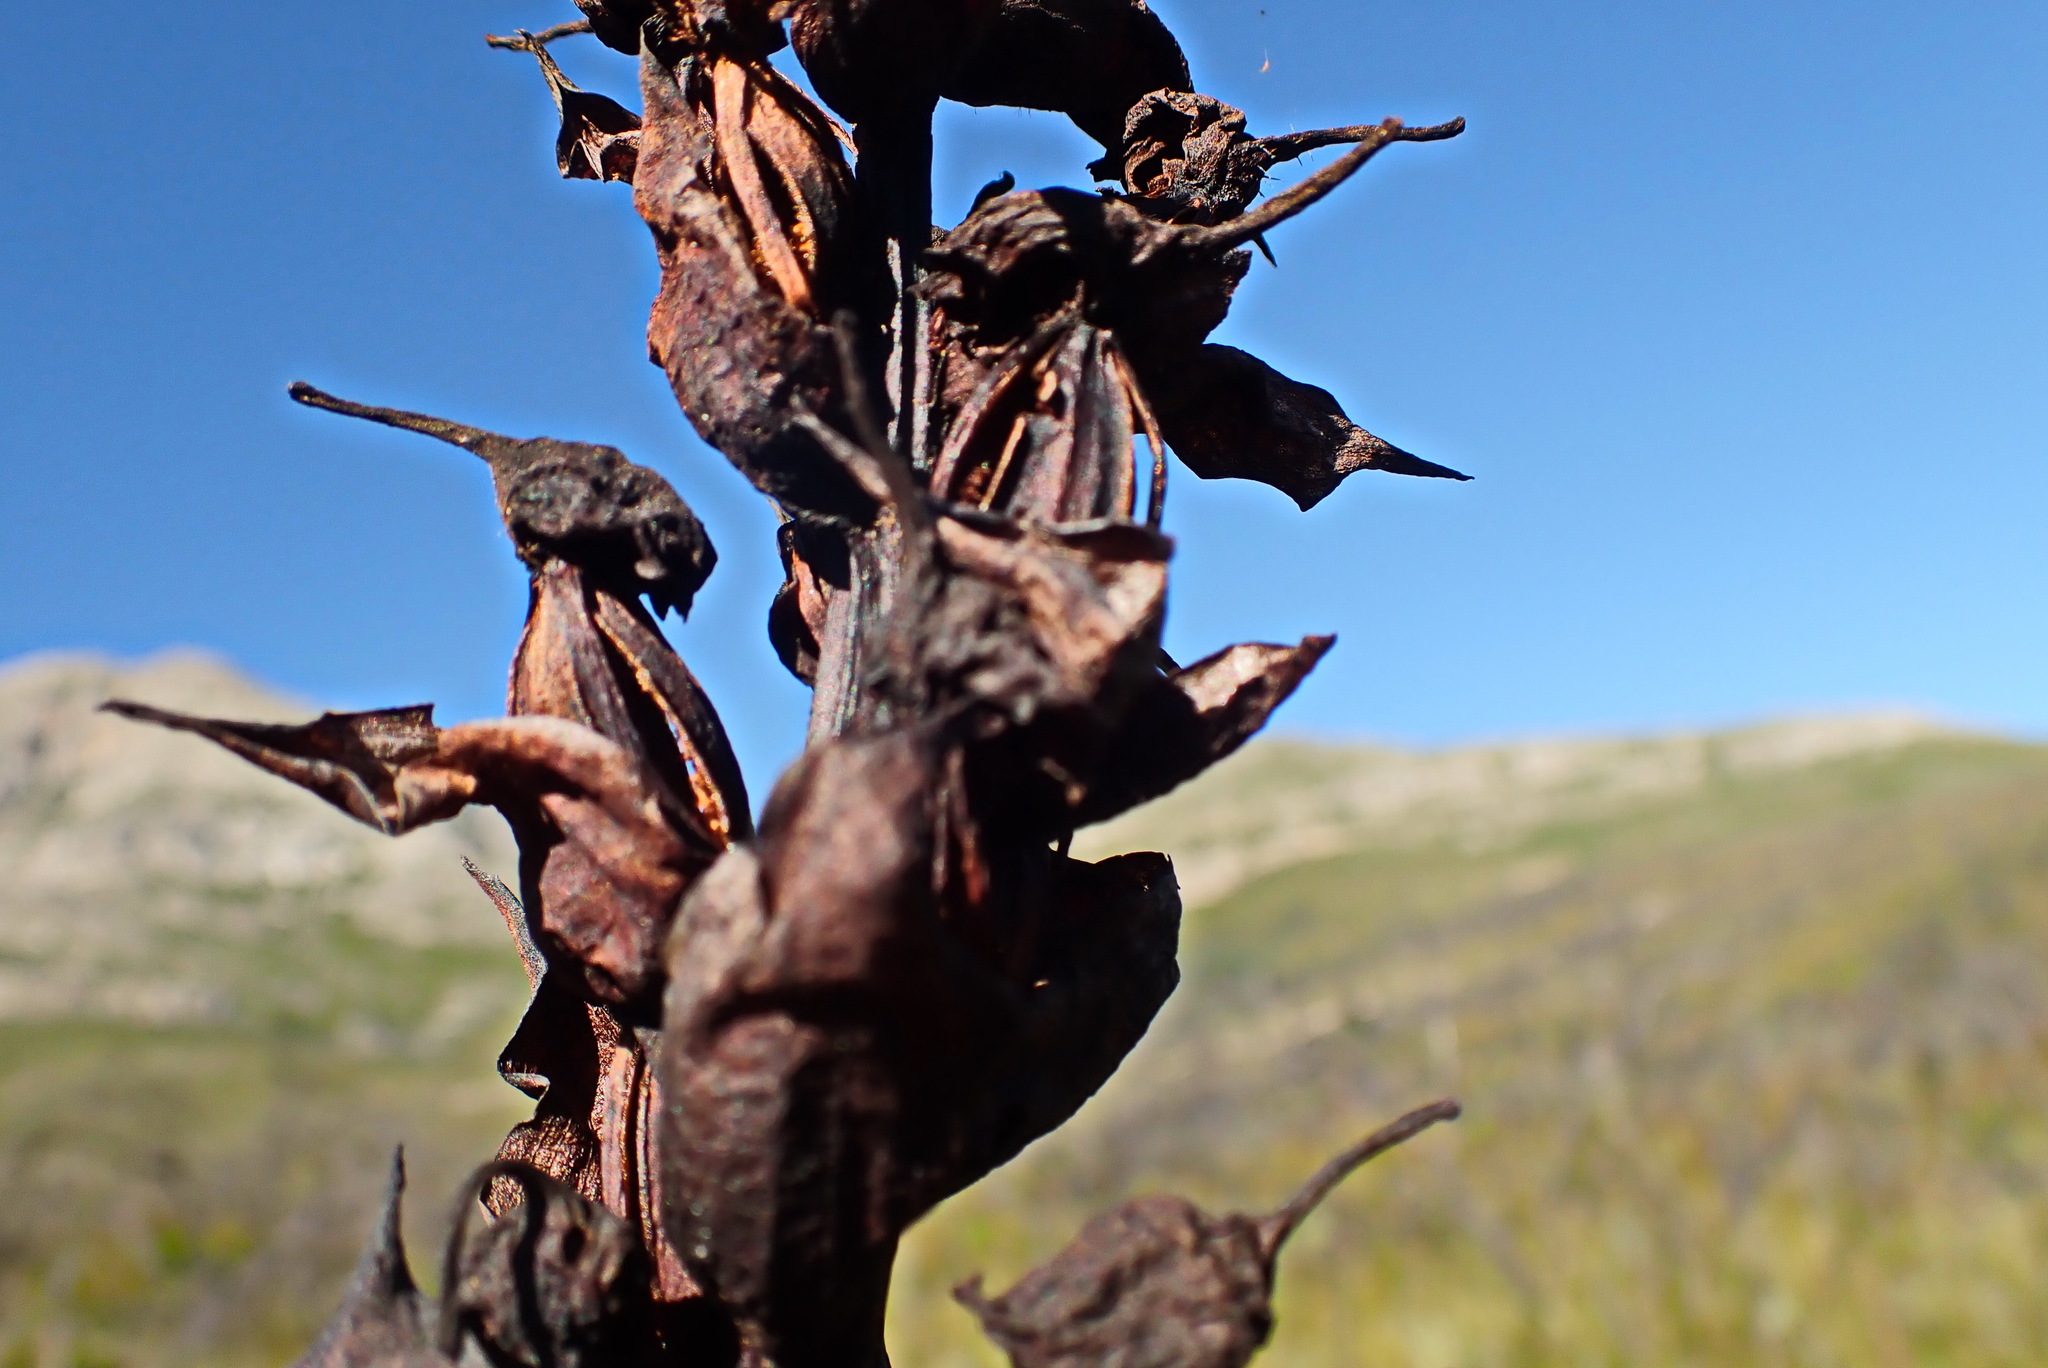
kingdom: Plantae
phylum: Tracheophyta
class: Liliopsida
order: Asparagales
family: Orchidaceae
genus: Disa
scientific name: Disa cornuta
